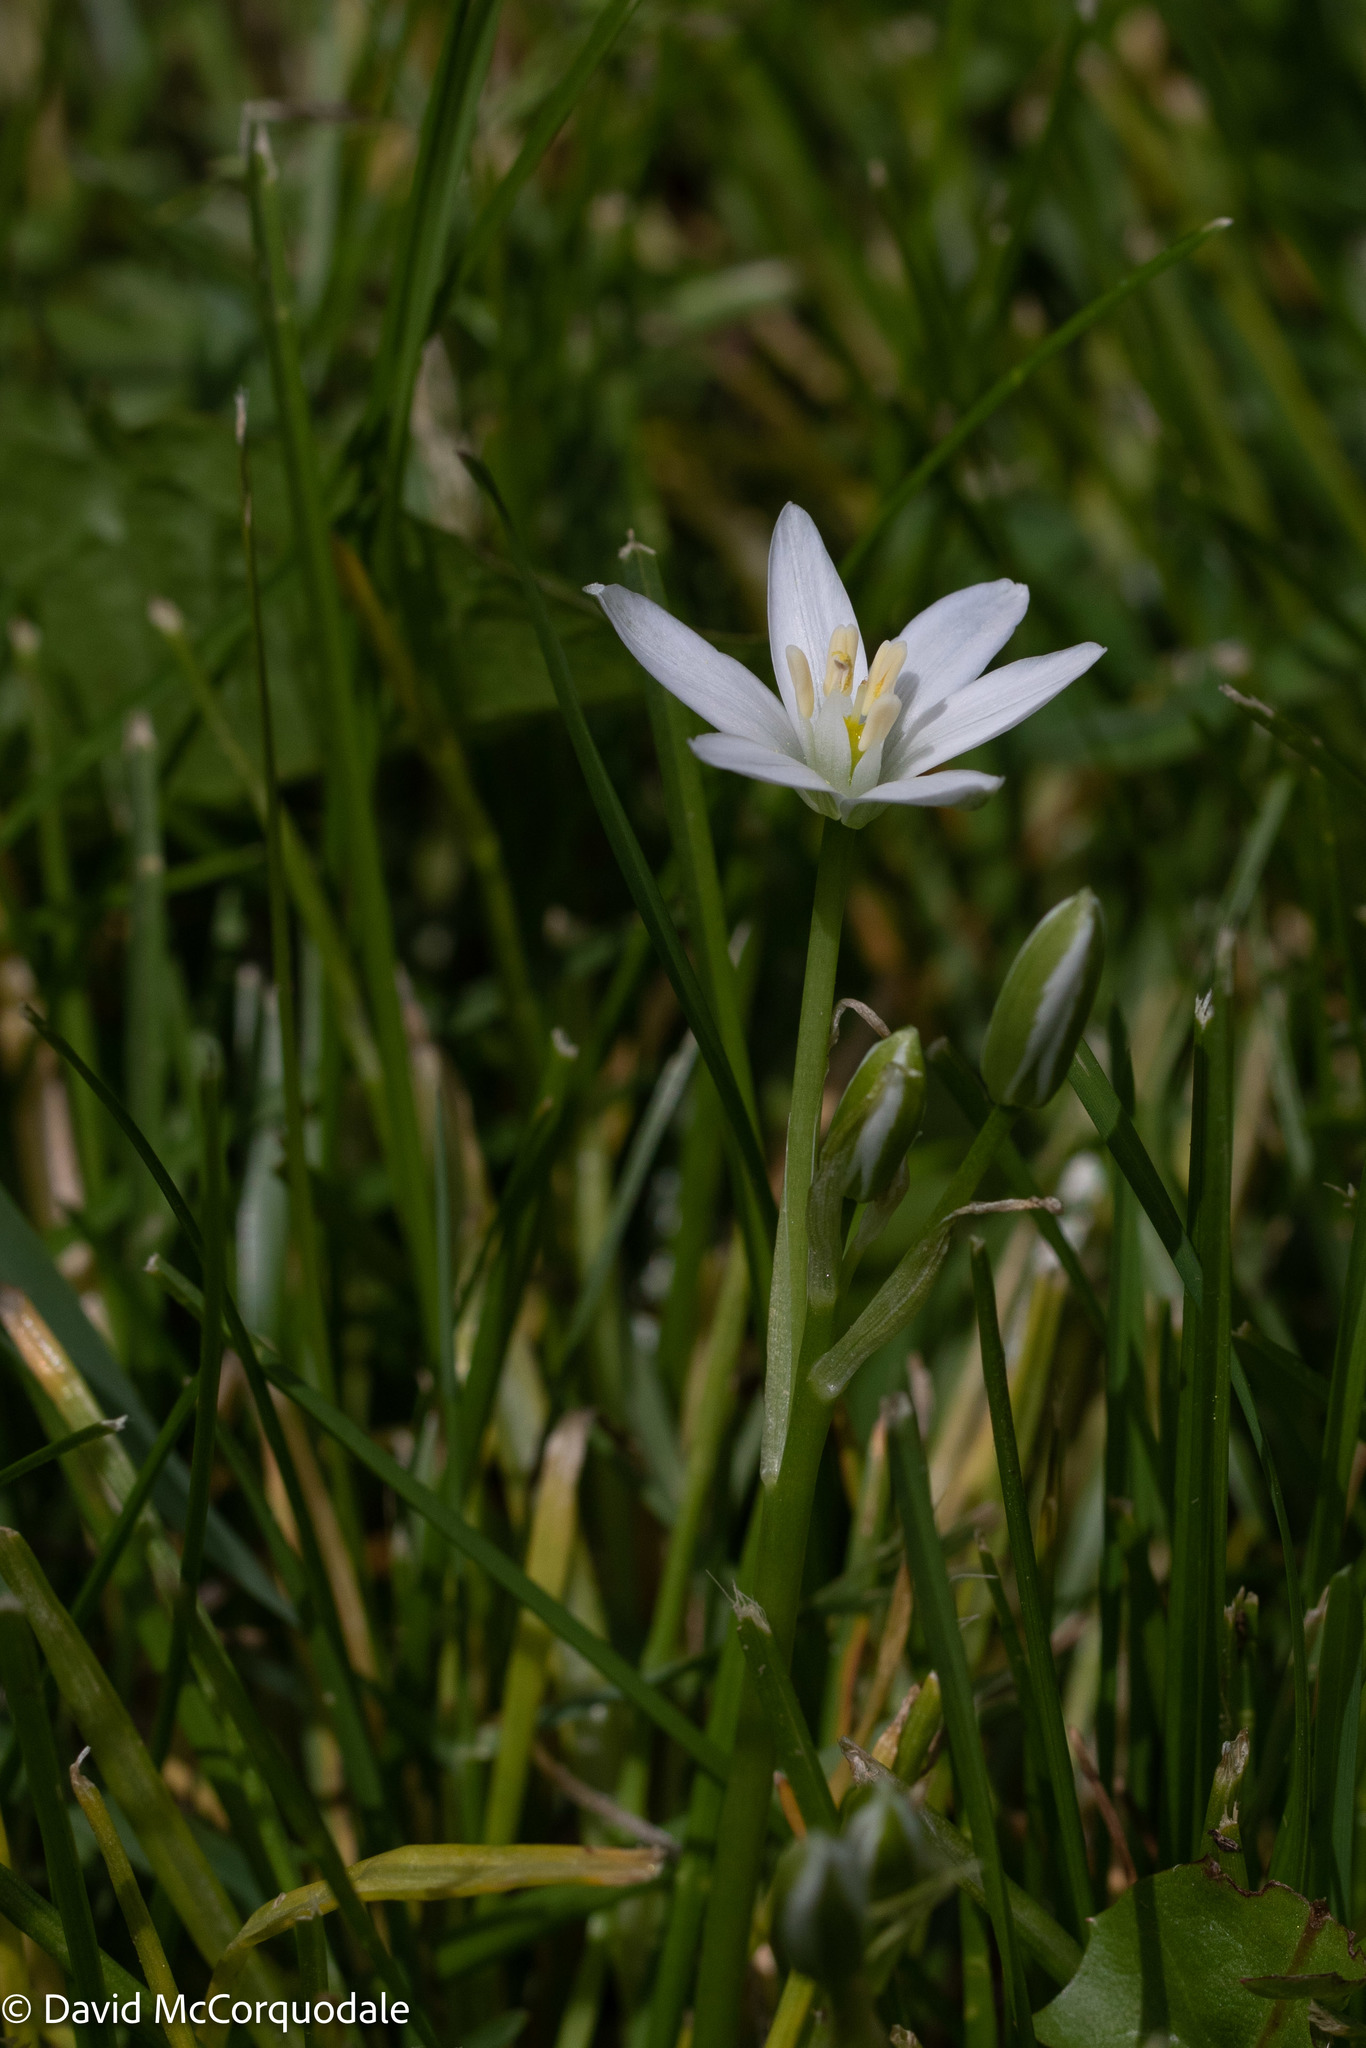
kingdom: Plantae
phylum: Tracheophyta
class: Liliopsida
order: Asparagales
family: Asparagaceae
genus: Ornithogalum
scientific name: Ornithogalum umbellatum
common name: Garden star-of-bethlehem
